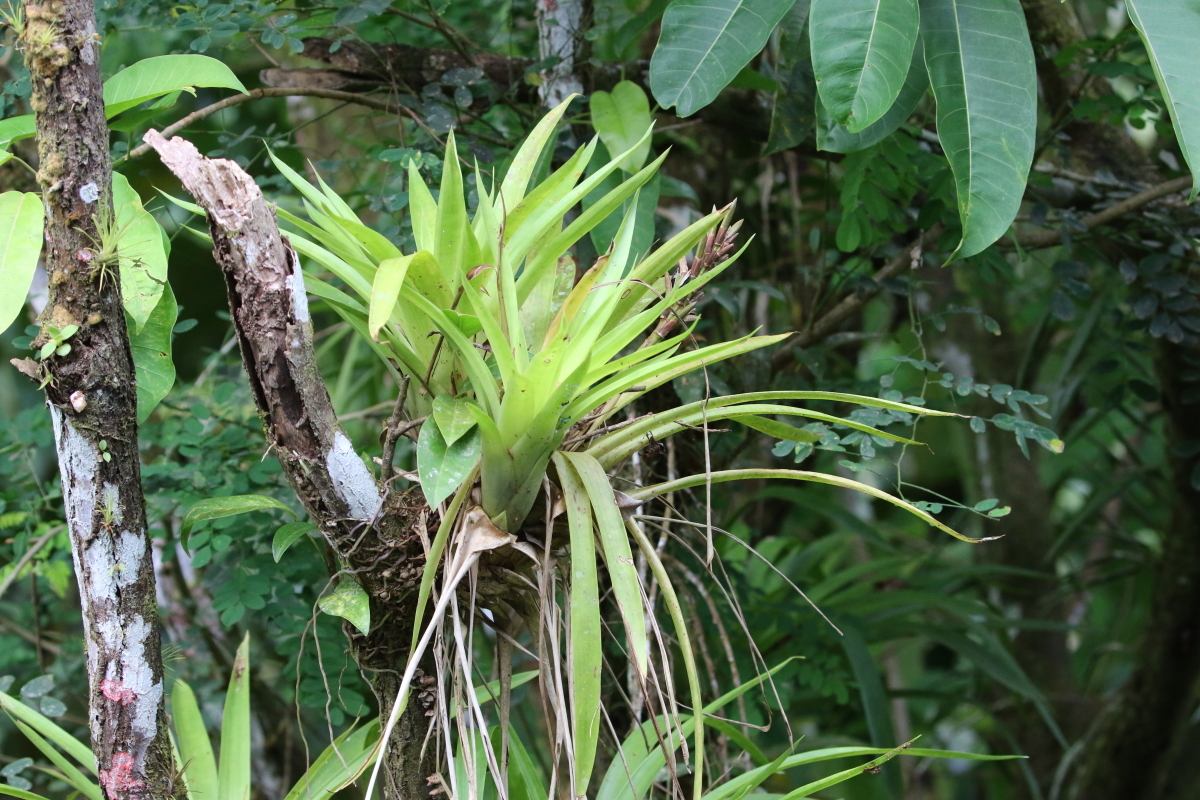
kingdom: Plantae
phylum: Tracheophyta
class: Liliopsida
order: Poales
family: Bromeliaceae
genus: Guzmania
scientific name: Guzmania monostachia
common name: West indian tufted airplant
